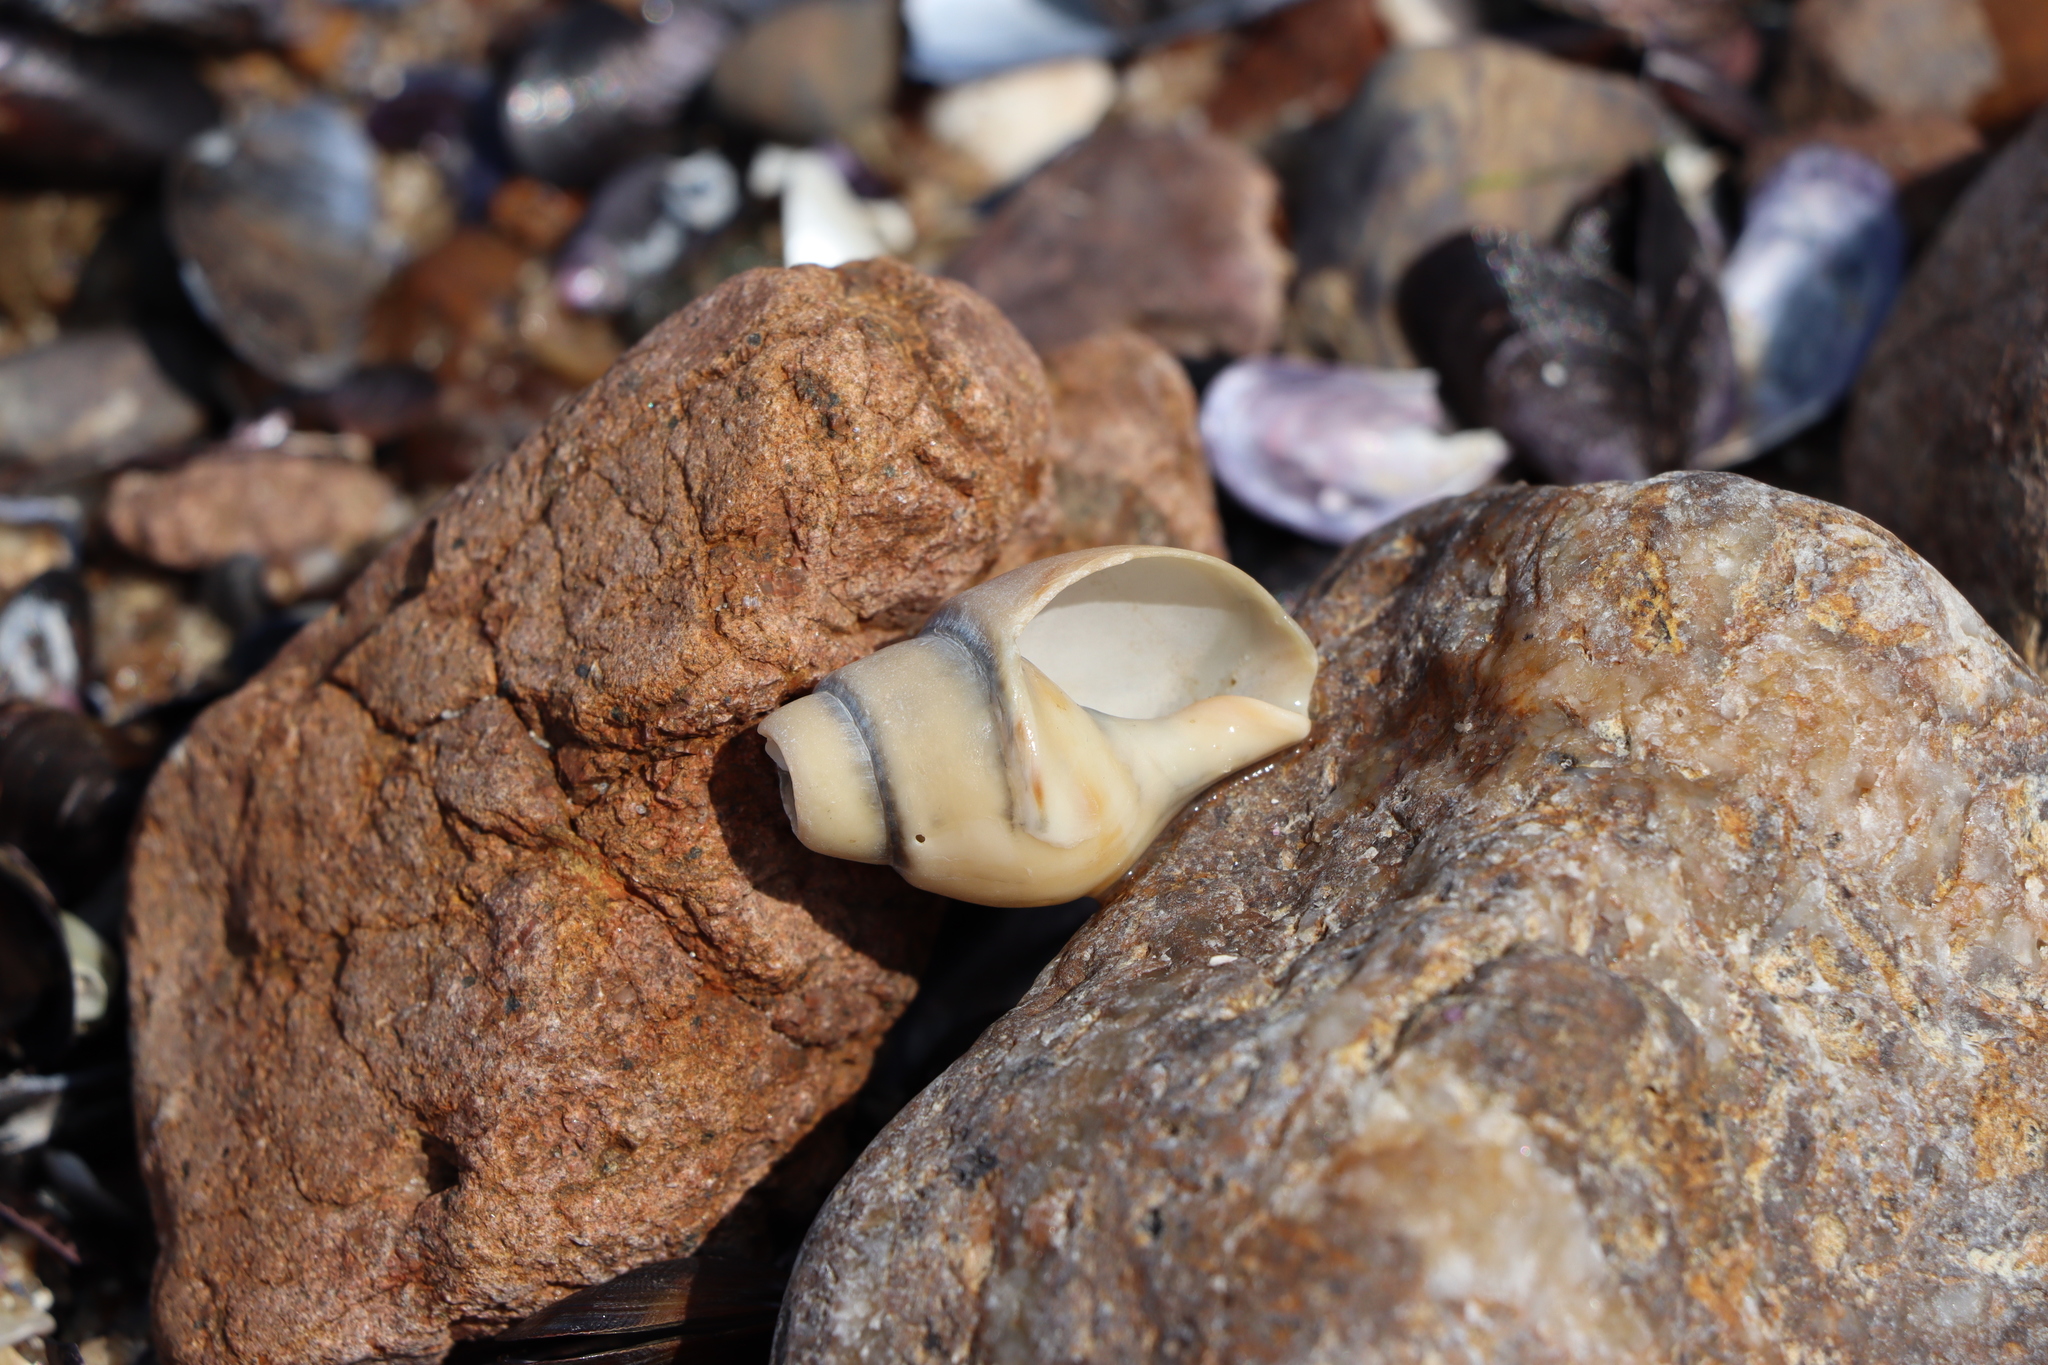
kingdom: Animalia
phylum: Mollusca
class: Gastropoda
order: Neogastropoda
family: Buccinanopsidae
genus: Buccinanops
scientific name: Buccinanops cochlidium
